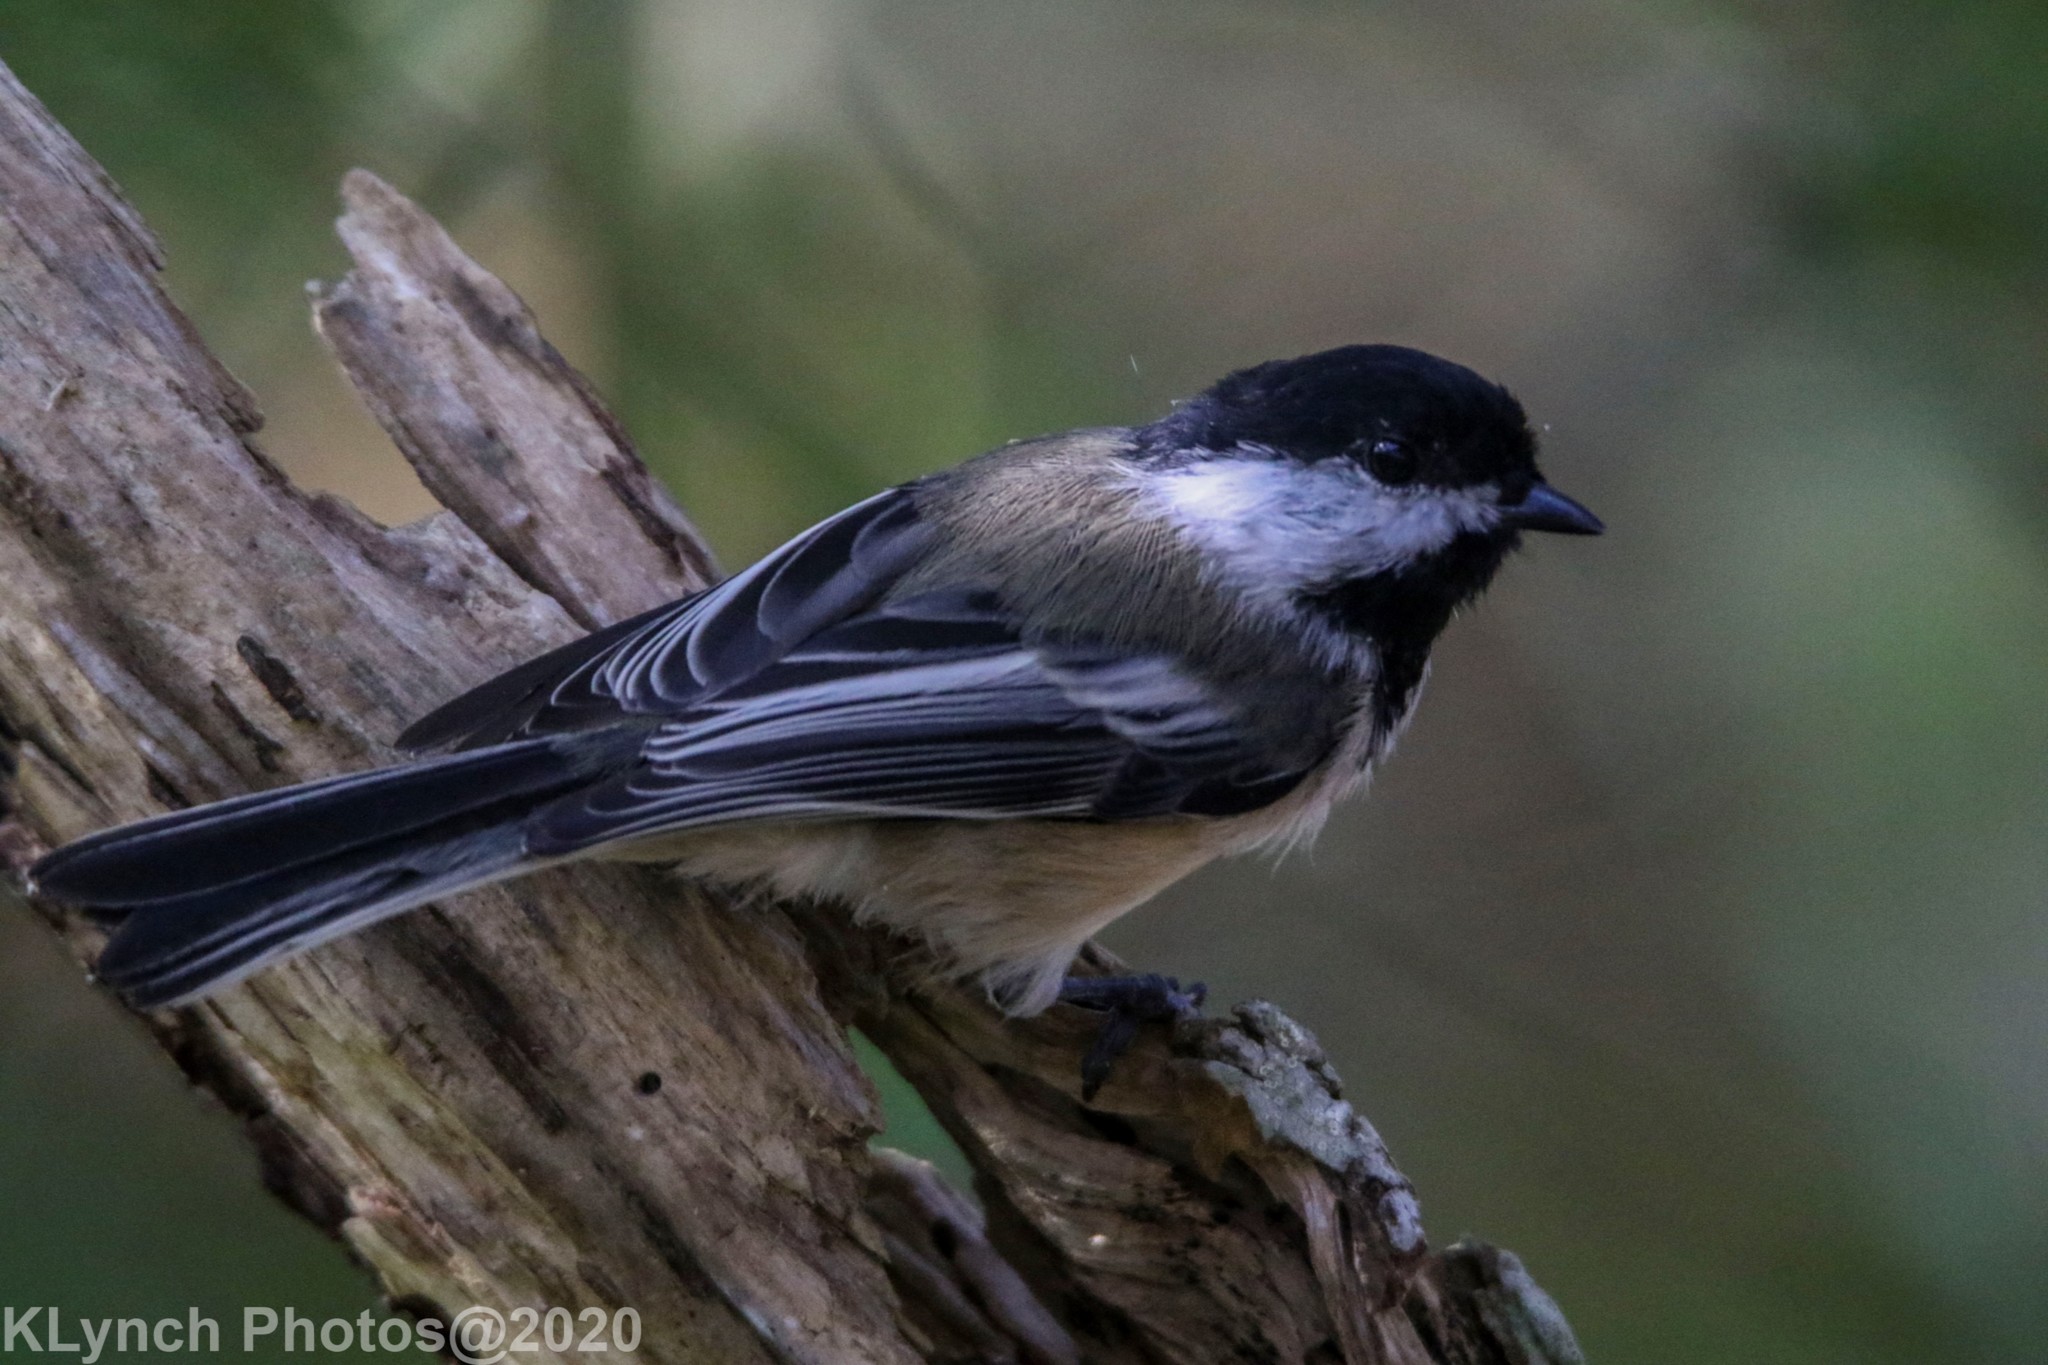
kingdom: Animalia
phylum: Chordata
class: Aves
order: Passeriformes
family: Paridae
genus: Poecile
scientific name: Poecile atricapillus
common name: Black-capped chickadee
